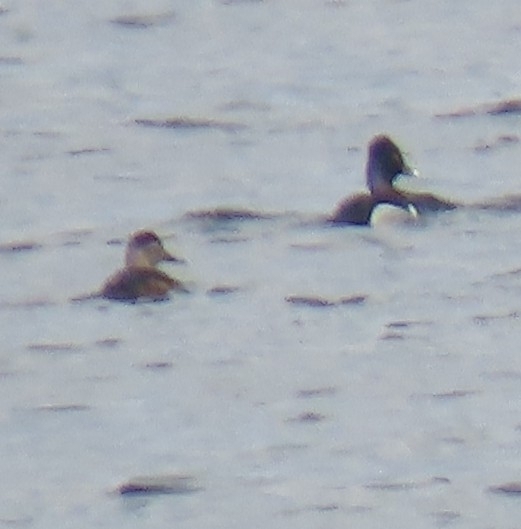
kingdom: Animalia
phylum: Chordata
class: Aves
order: Anseriformes
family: Anatidae
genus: Aythya
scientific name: Aythya collaris
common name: Ring-necked duck
